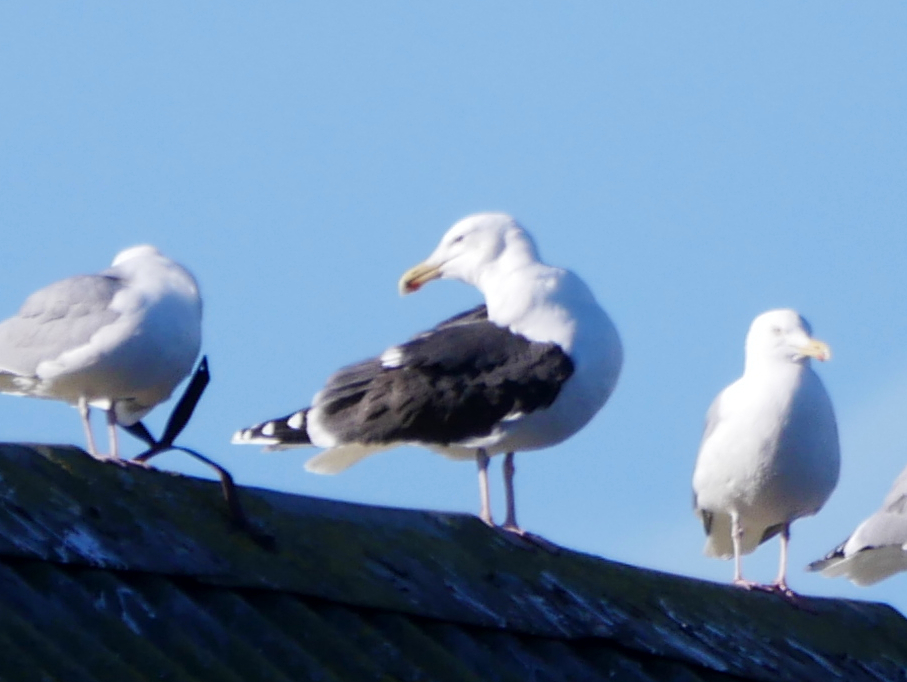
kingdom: Animalia
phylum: Chordata
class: Aves
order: Charadriiformes
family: Laridae
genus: Larus
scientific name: Larus marinus
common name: Great black-backed gull
